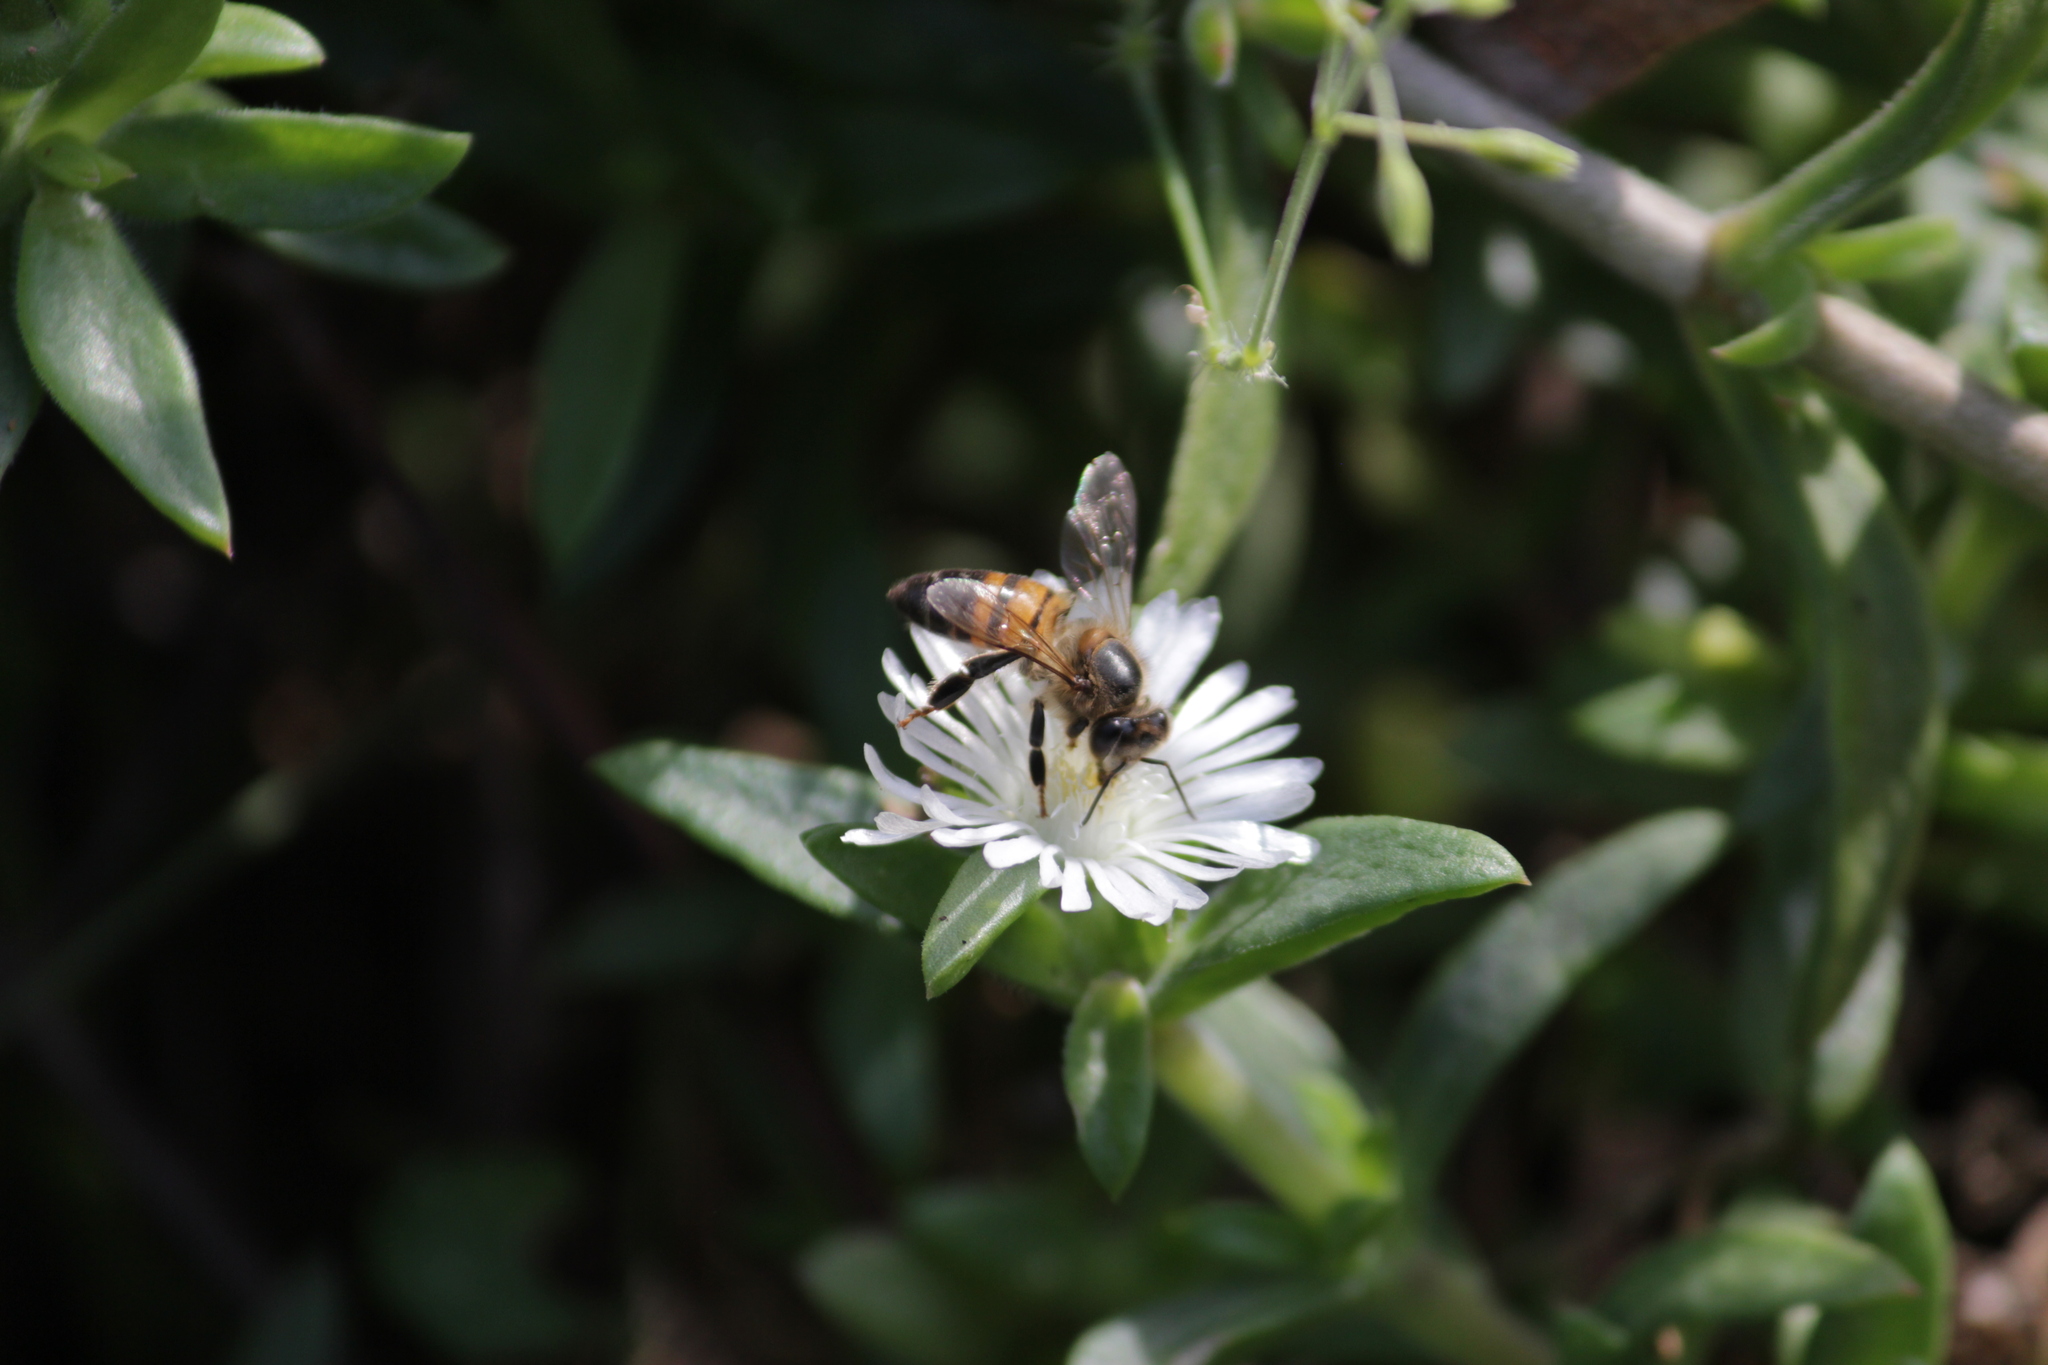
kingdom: Animalia
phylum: Arthropoda
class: Insecta
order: Hymenoptera
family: Apidae
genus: Apis
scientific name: Apis mellifera
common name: Honey bee
